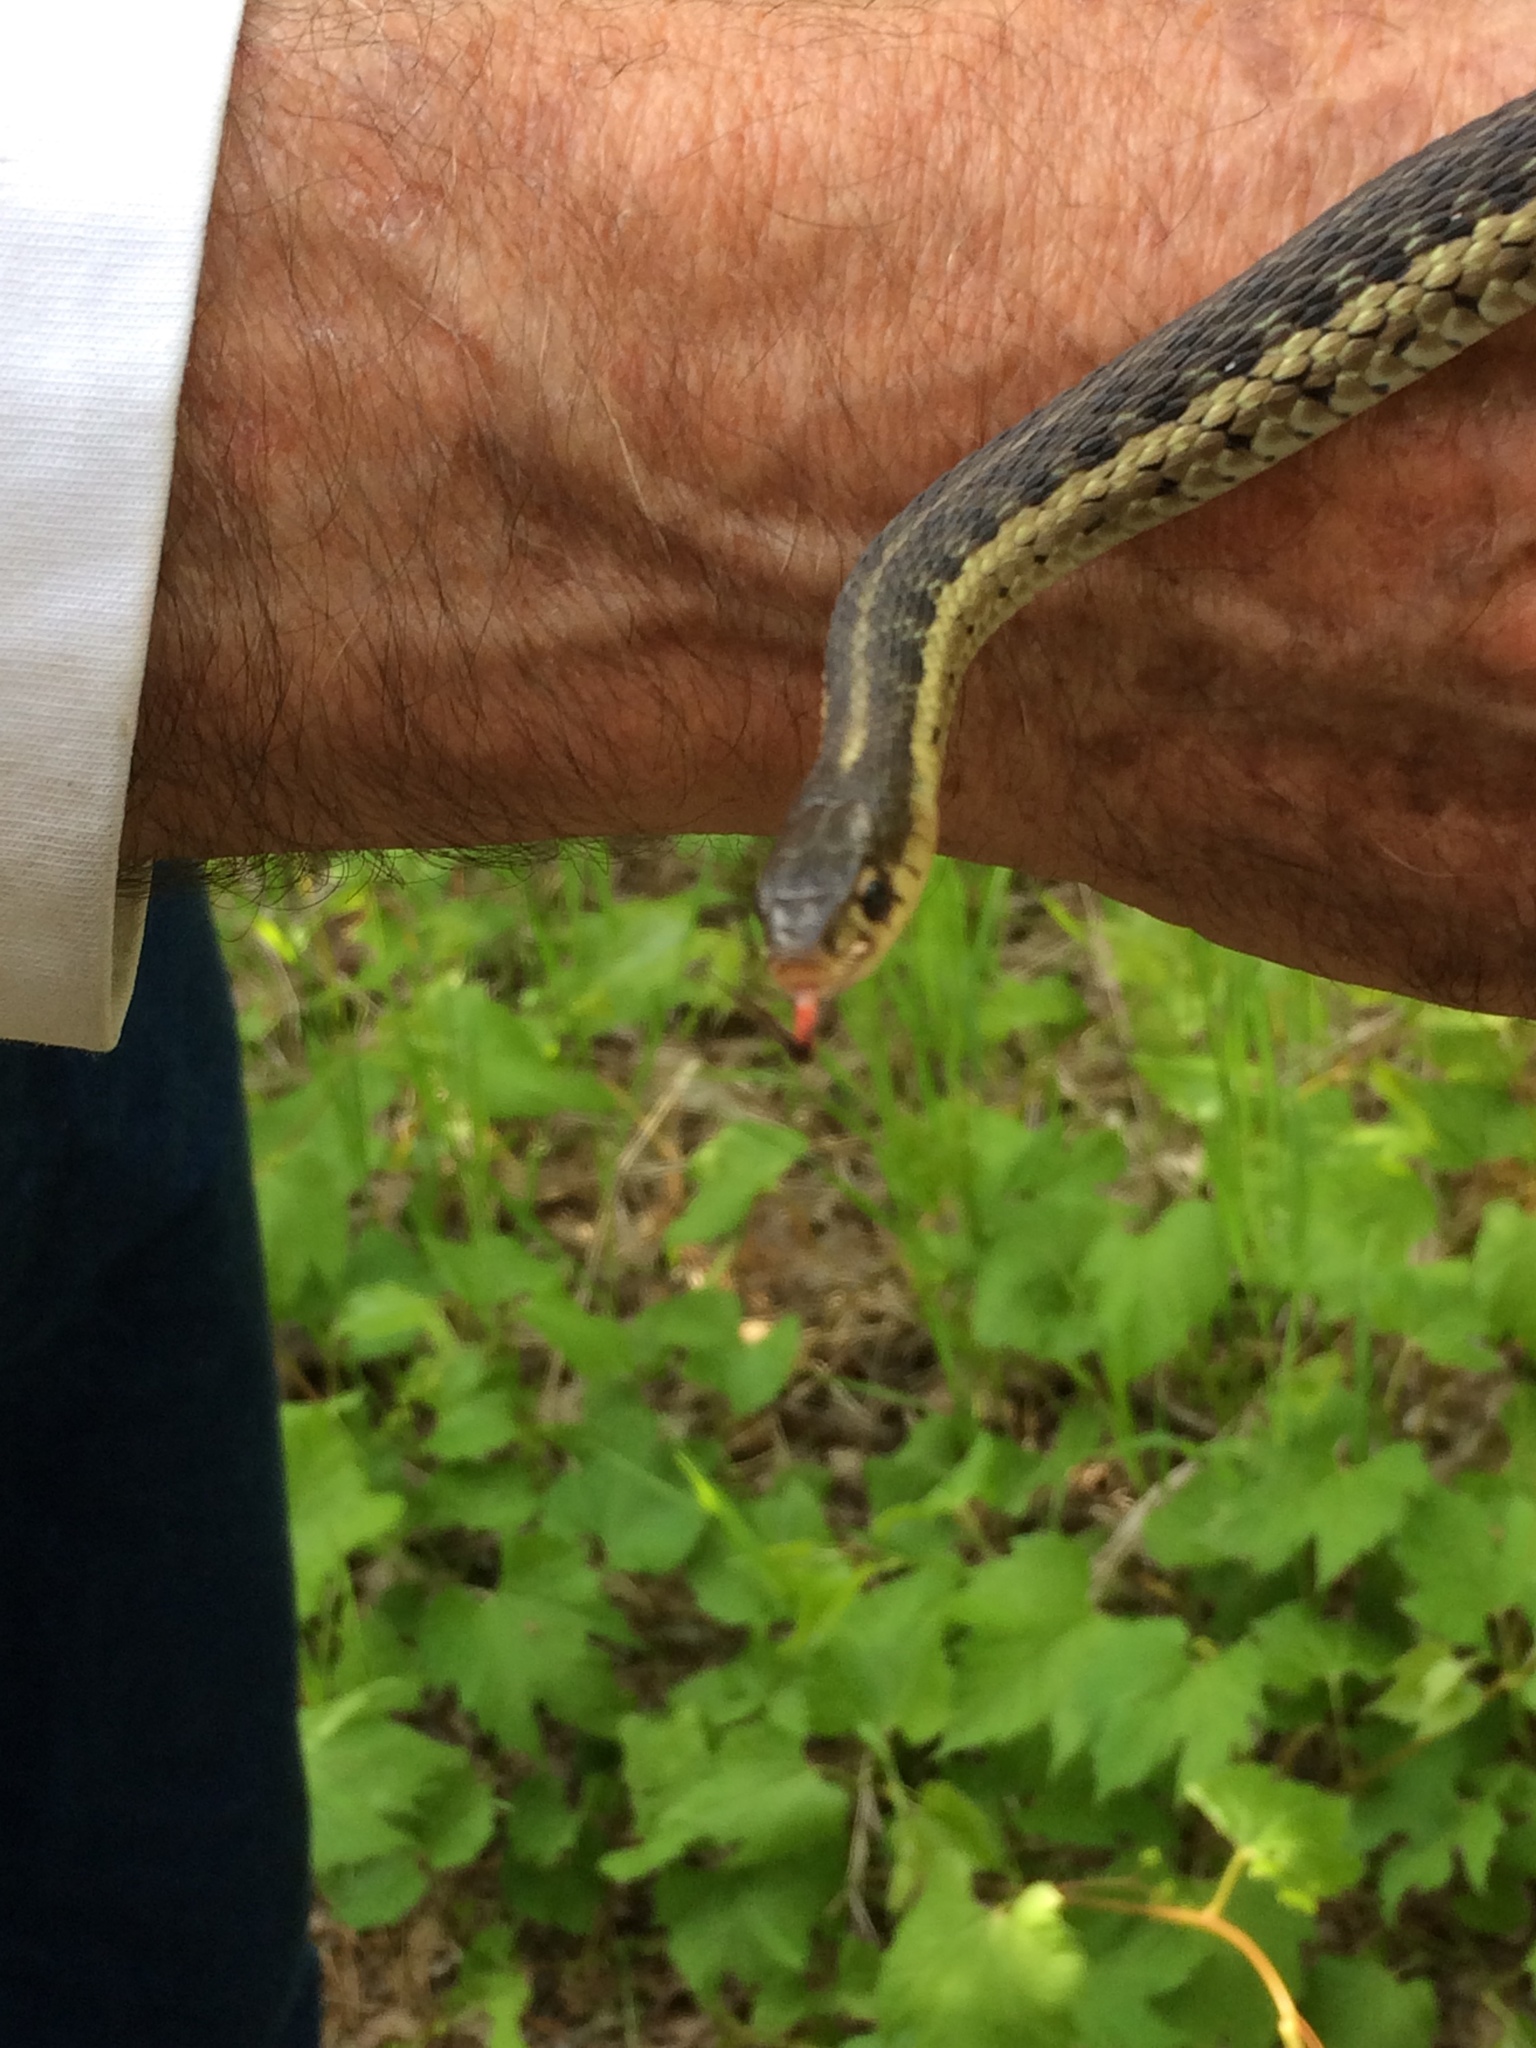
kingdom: Animalia
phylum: Chordata
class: Squamata
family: Colubridae
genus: Thamnophis
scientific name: Thamnophis sirtalis
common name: Common garter snake
